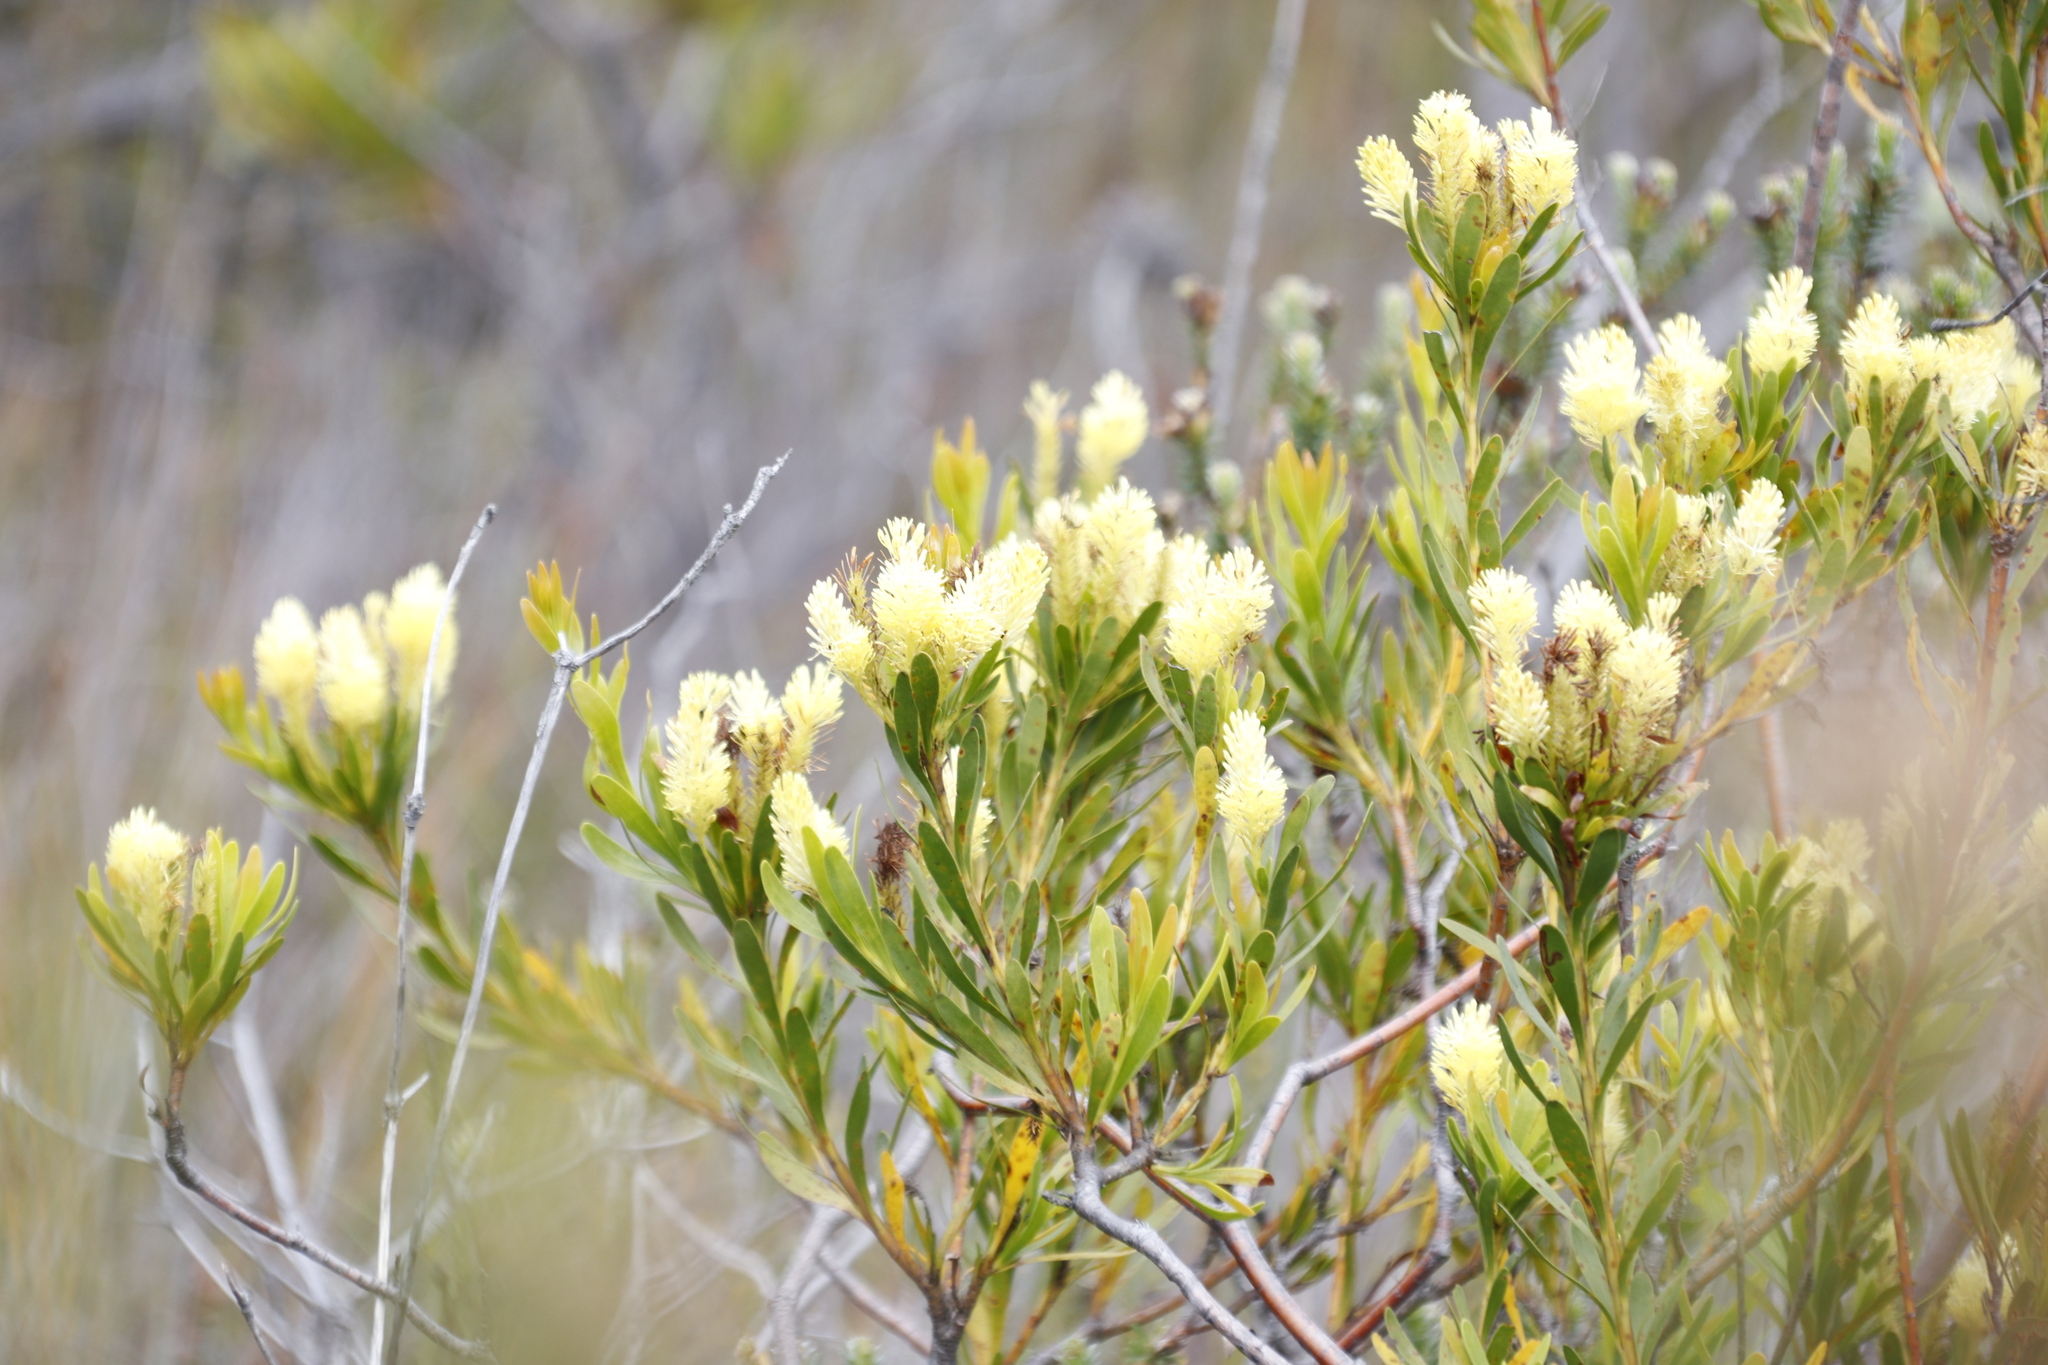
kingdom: Plantae
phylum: Tracheophyta
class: Magnoliopsida
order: Proteales
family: Proteaceae
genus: Aulax
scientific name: Aulax umbellata
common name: Broad-leaf featherbush
